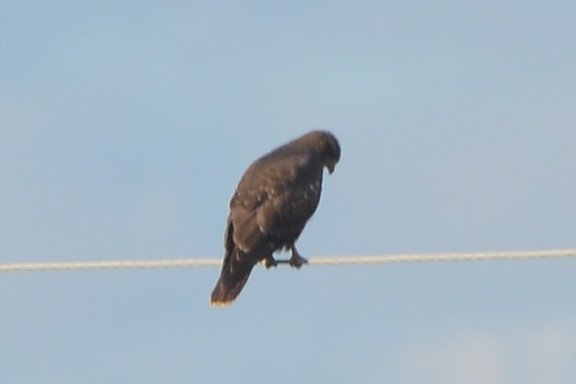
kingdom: Animalia
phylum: Chordata
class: Aves
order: Accipitriformes
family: Accipitridae
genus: Buteo
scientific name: Buteo buteo
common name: Common buzzard
